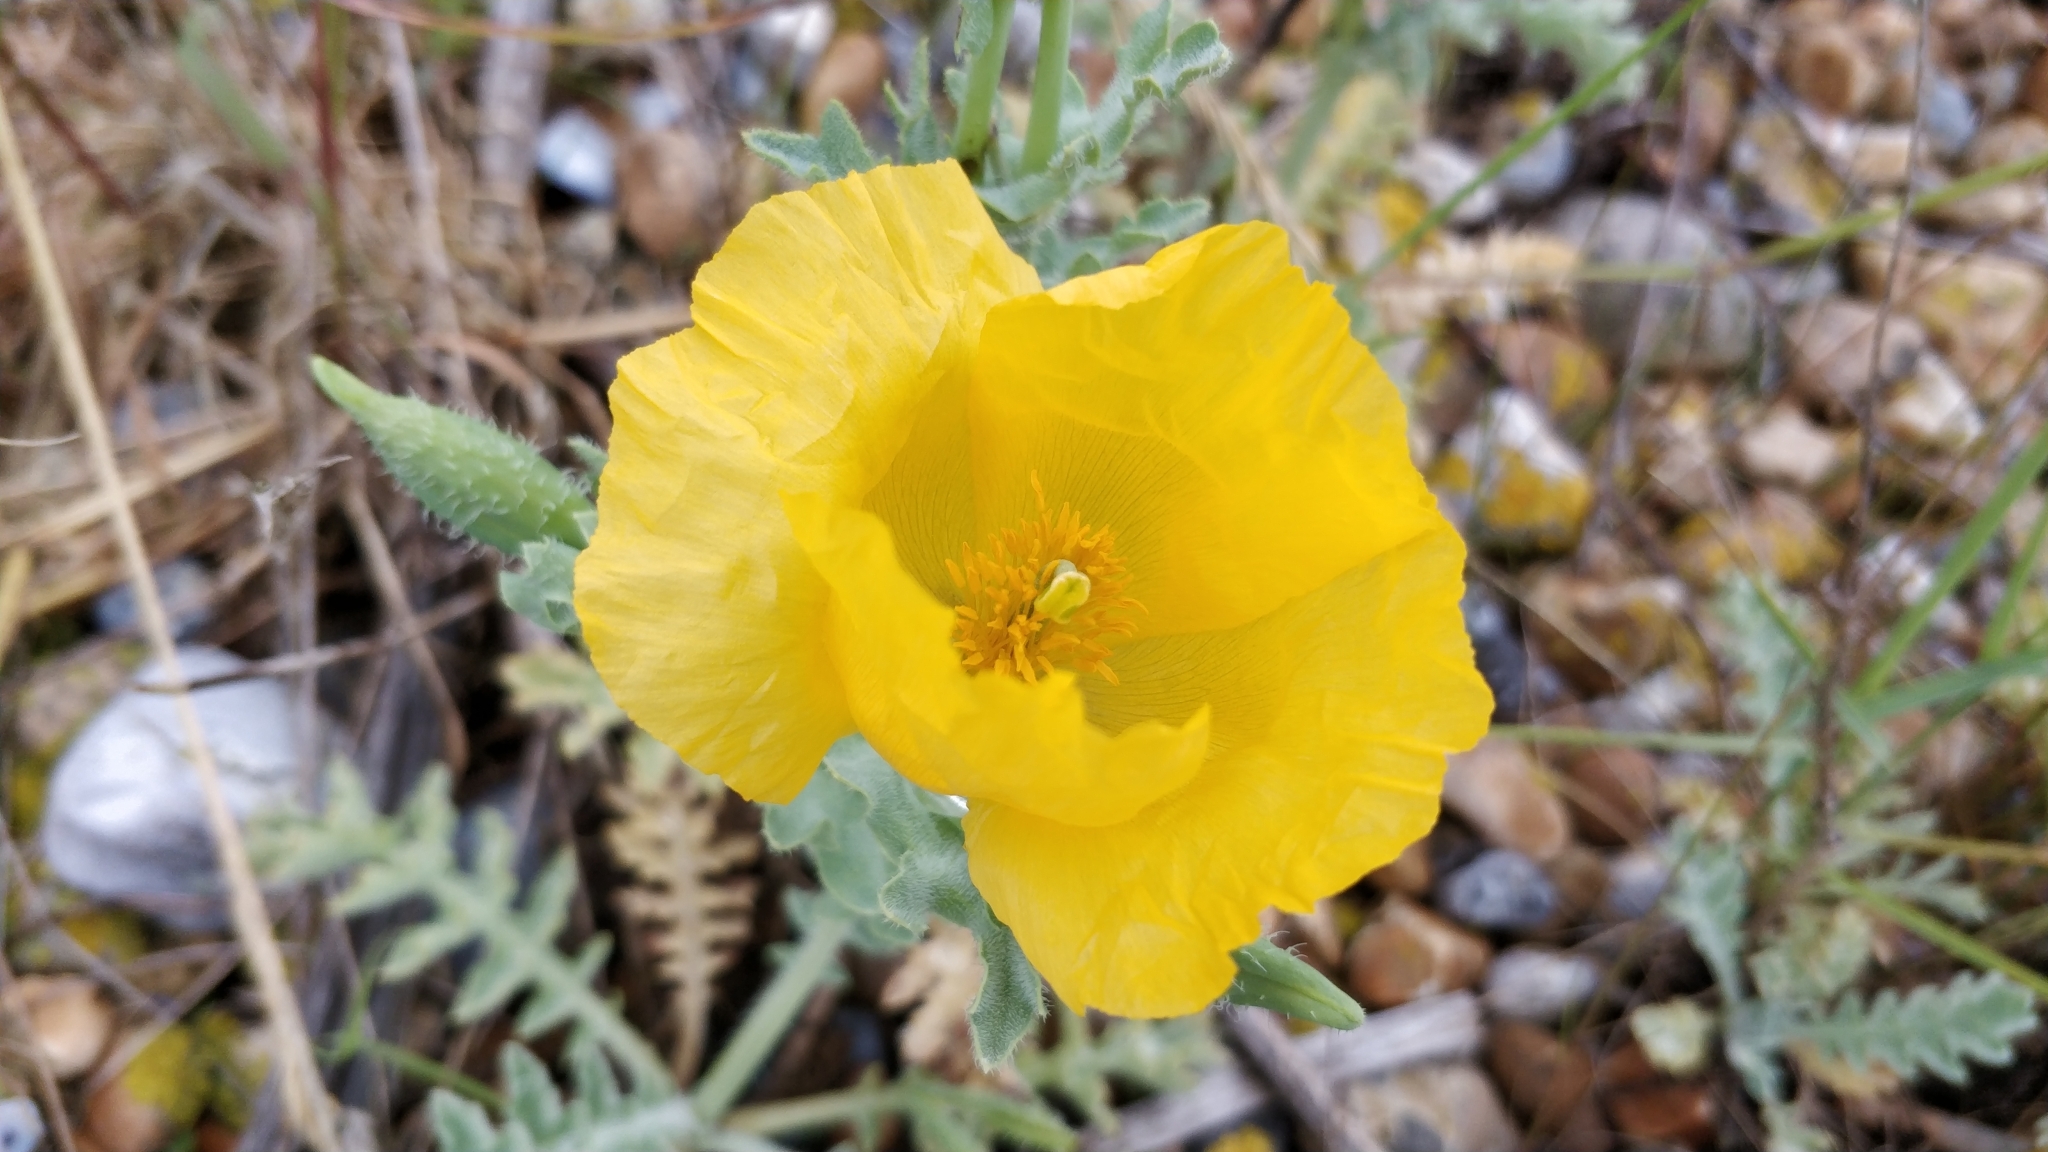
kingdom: Plantae
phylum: Tracheophyta
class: Magnoliopsida
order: Ranunculales
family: Papaveraceae
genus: Glaucium
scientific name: Glaucium flavum
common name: Yellow horned-poppy
